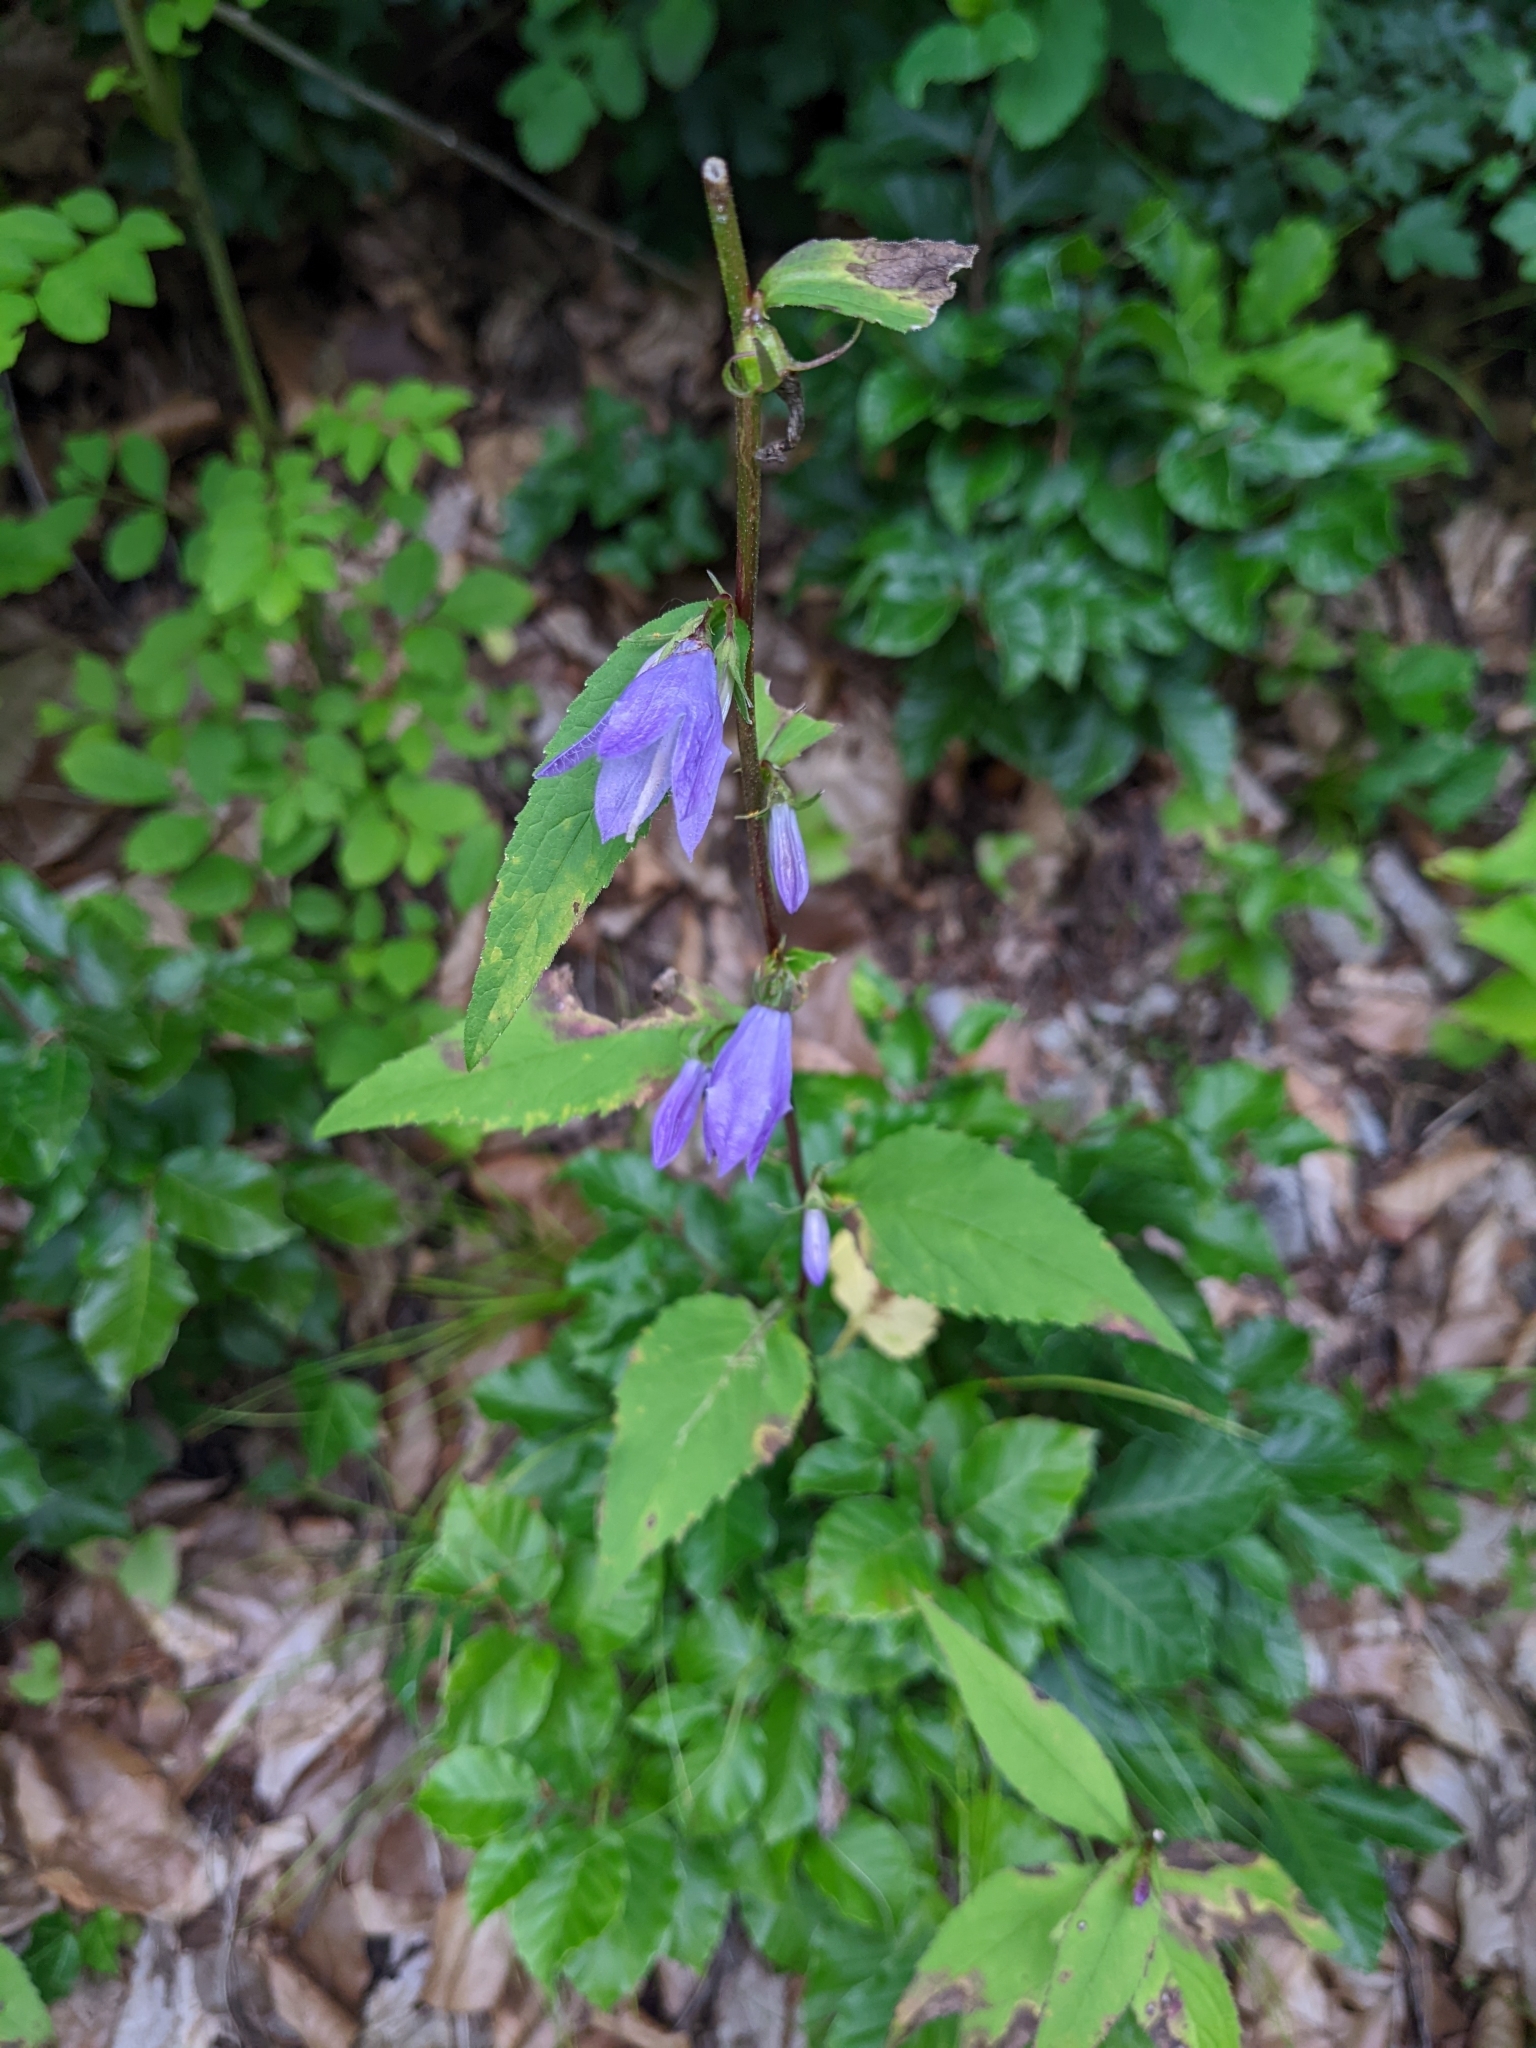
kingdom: Plantae
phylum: Tracheophyta
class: Magnoliopsida
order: Asterales
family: Campanulaceae
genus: Campanula
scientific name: Campanula trachelium
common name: Nettle-leaved bellflower
